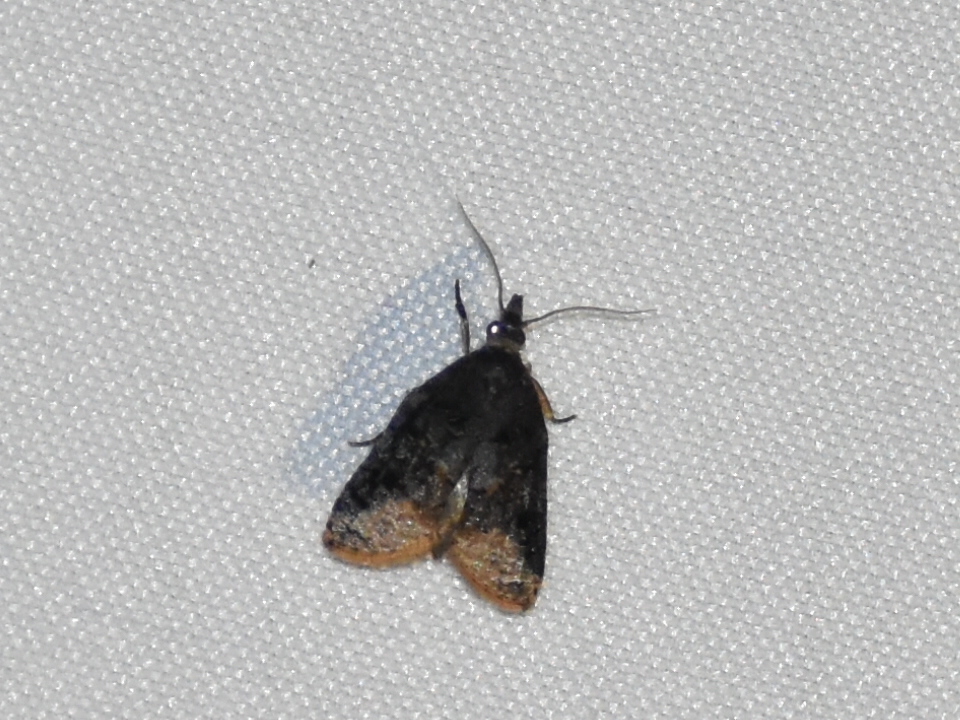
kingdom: Animalia
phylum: Arthropoda
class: Insecta
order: Lepidoptera
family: Tortricidae
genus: Platynota
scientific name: Platynota semiustana
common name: Singed platynota
